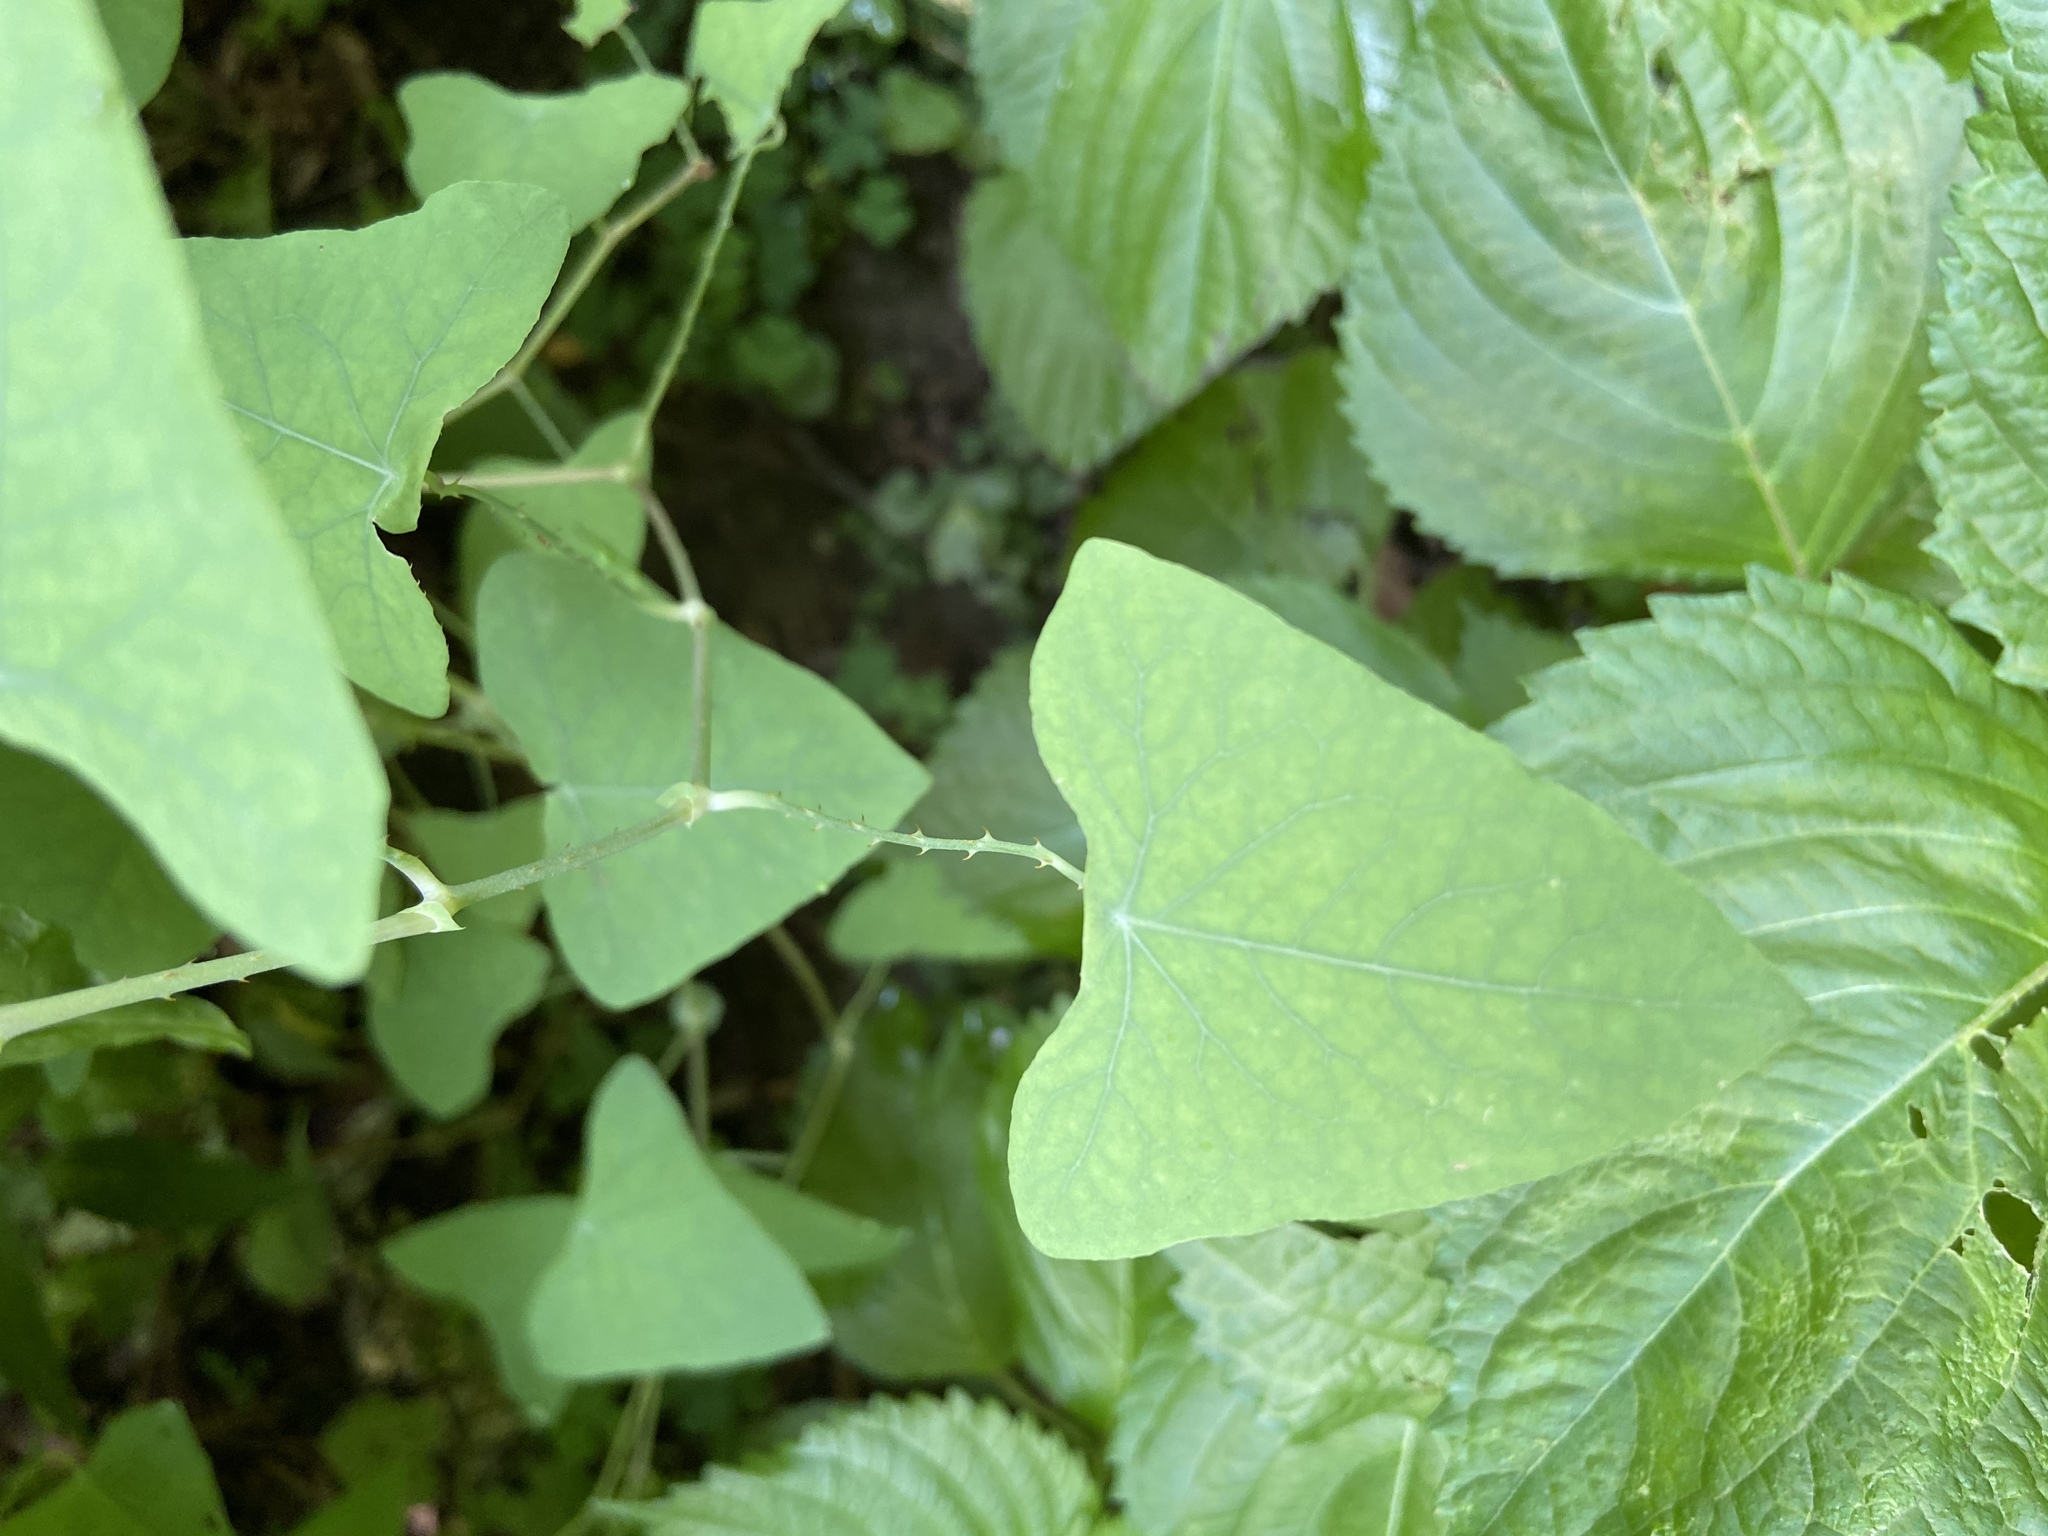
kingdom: Plantae
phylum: Tracheophyta
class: Magnoliopsida
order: Caryophyllales
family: Polygonaceae
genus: Persicaria
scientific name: Persicaria perfoliata
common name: Asiatic tearthumb
